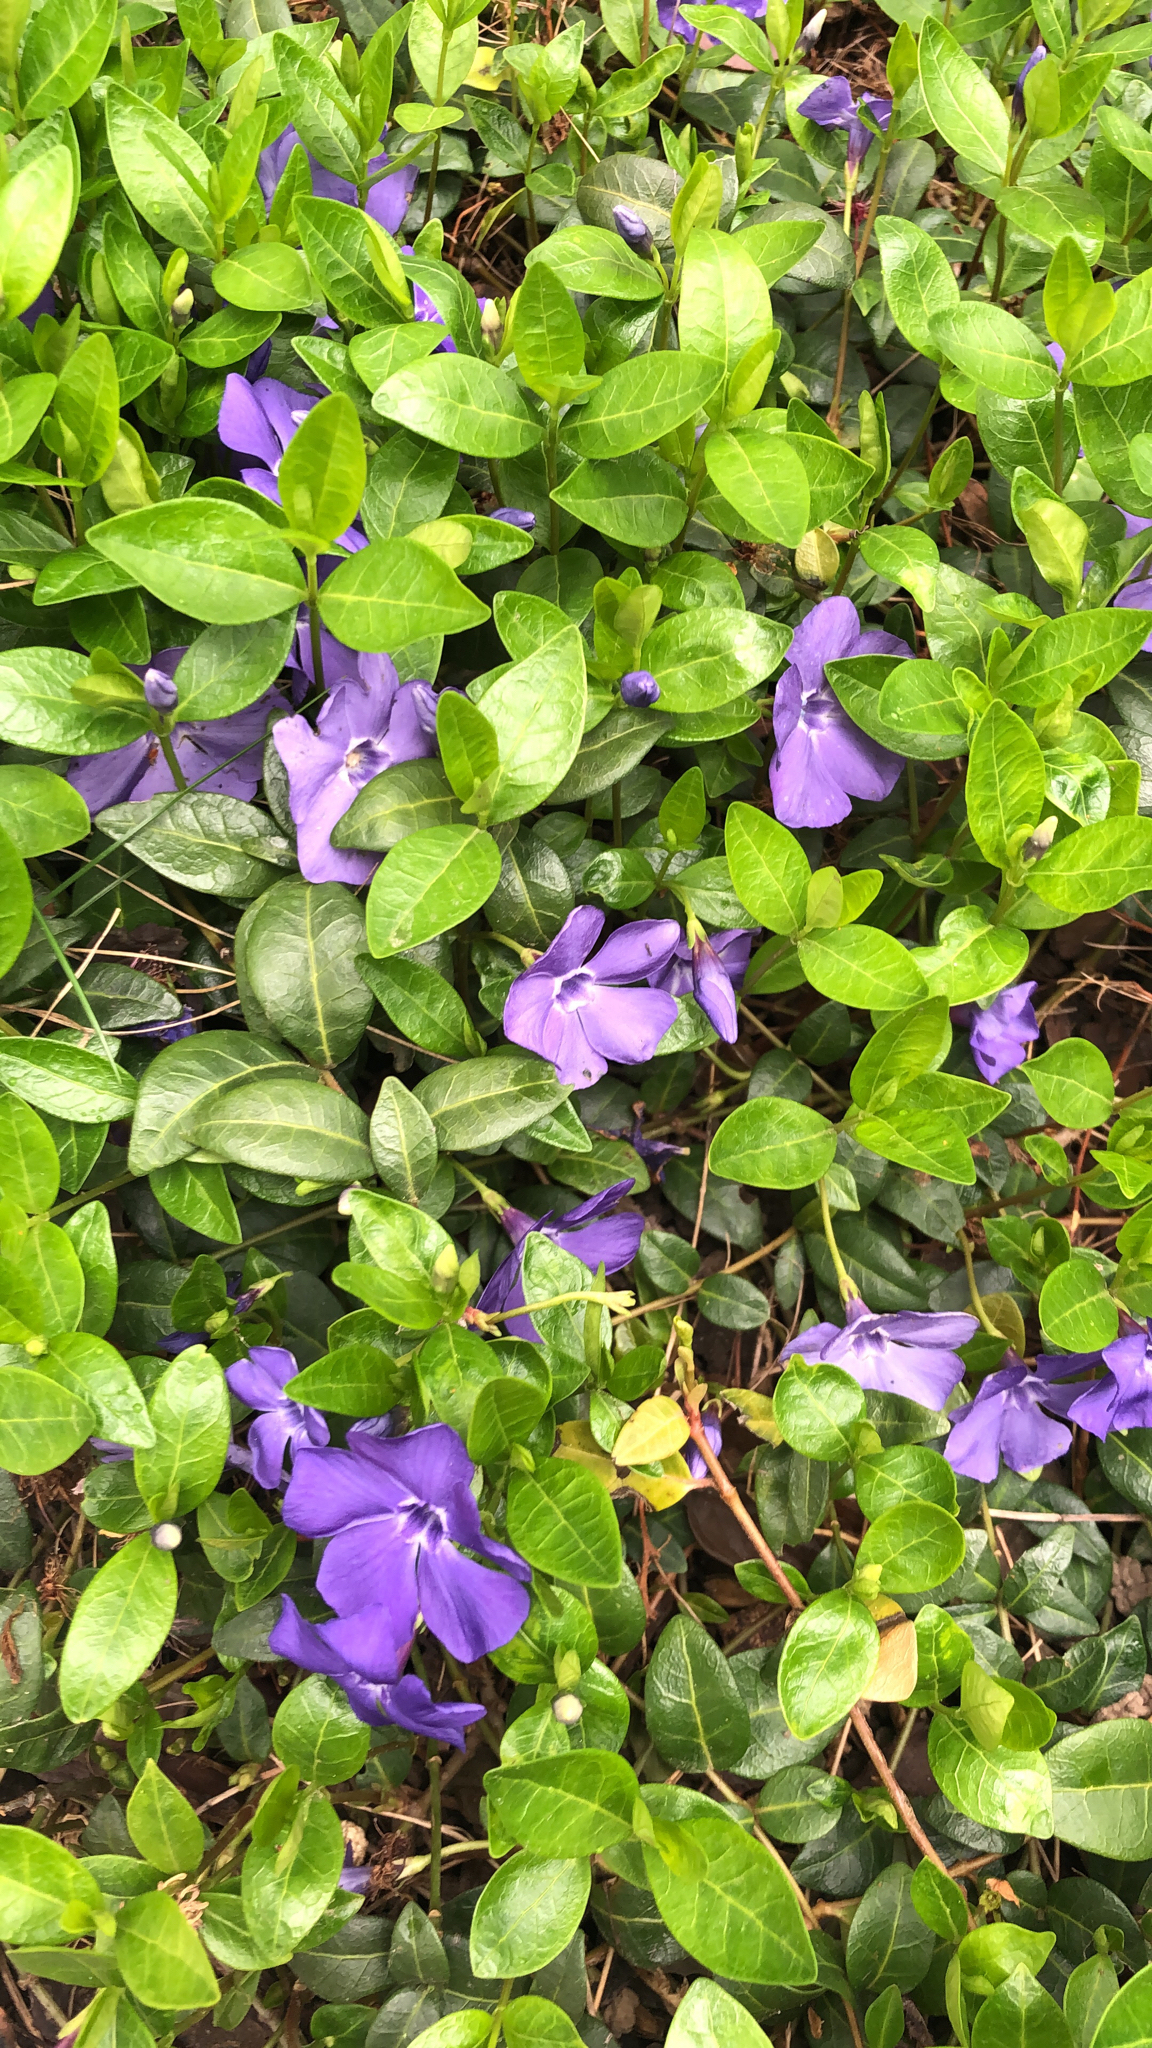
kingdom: Plantae
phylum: Tracheophyta
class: Magnoliopsida
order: Gentianales
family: Apocynaceae
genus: Vinca
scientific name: Vinca minor
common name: Lesser periwinkle
